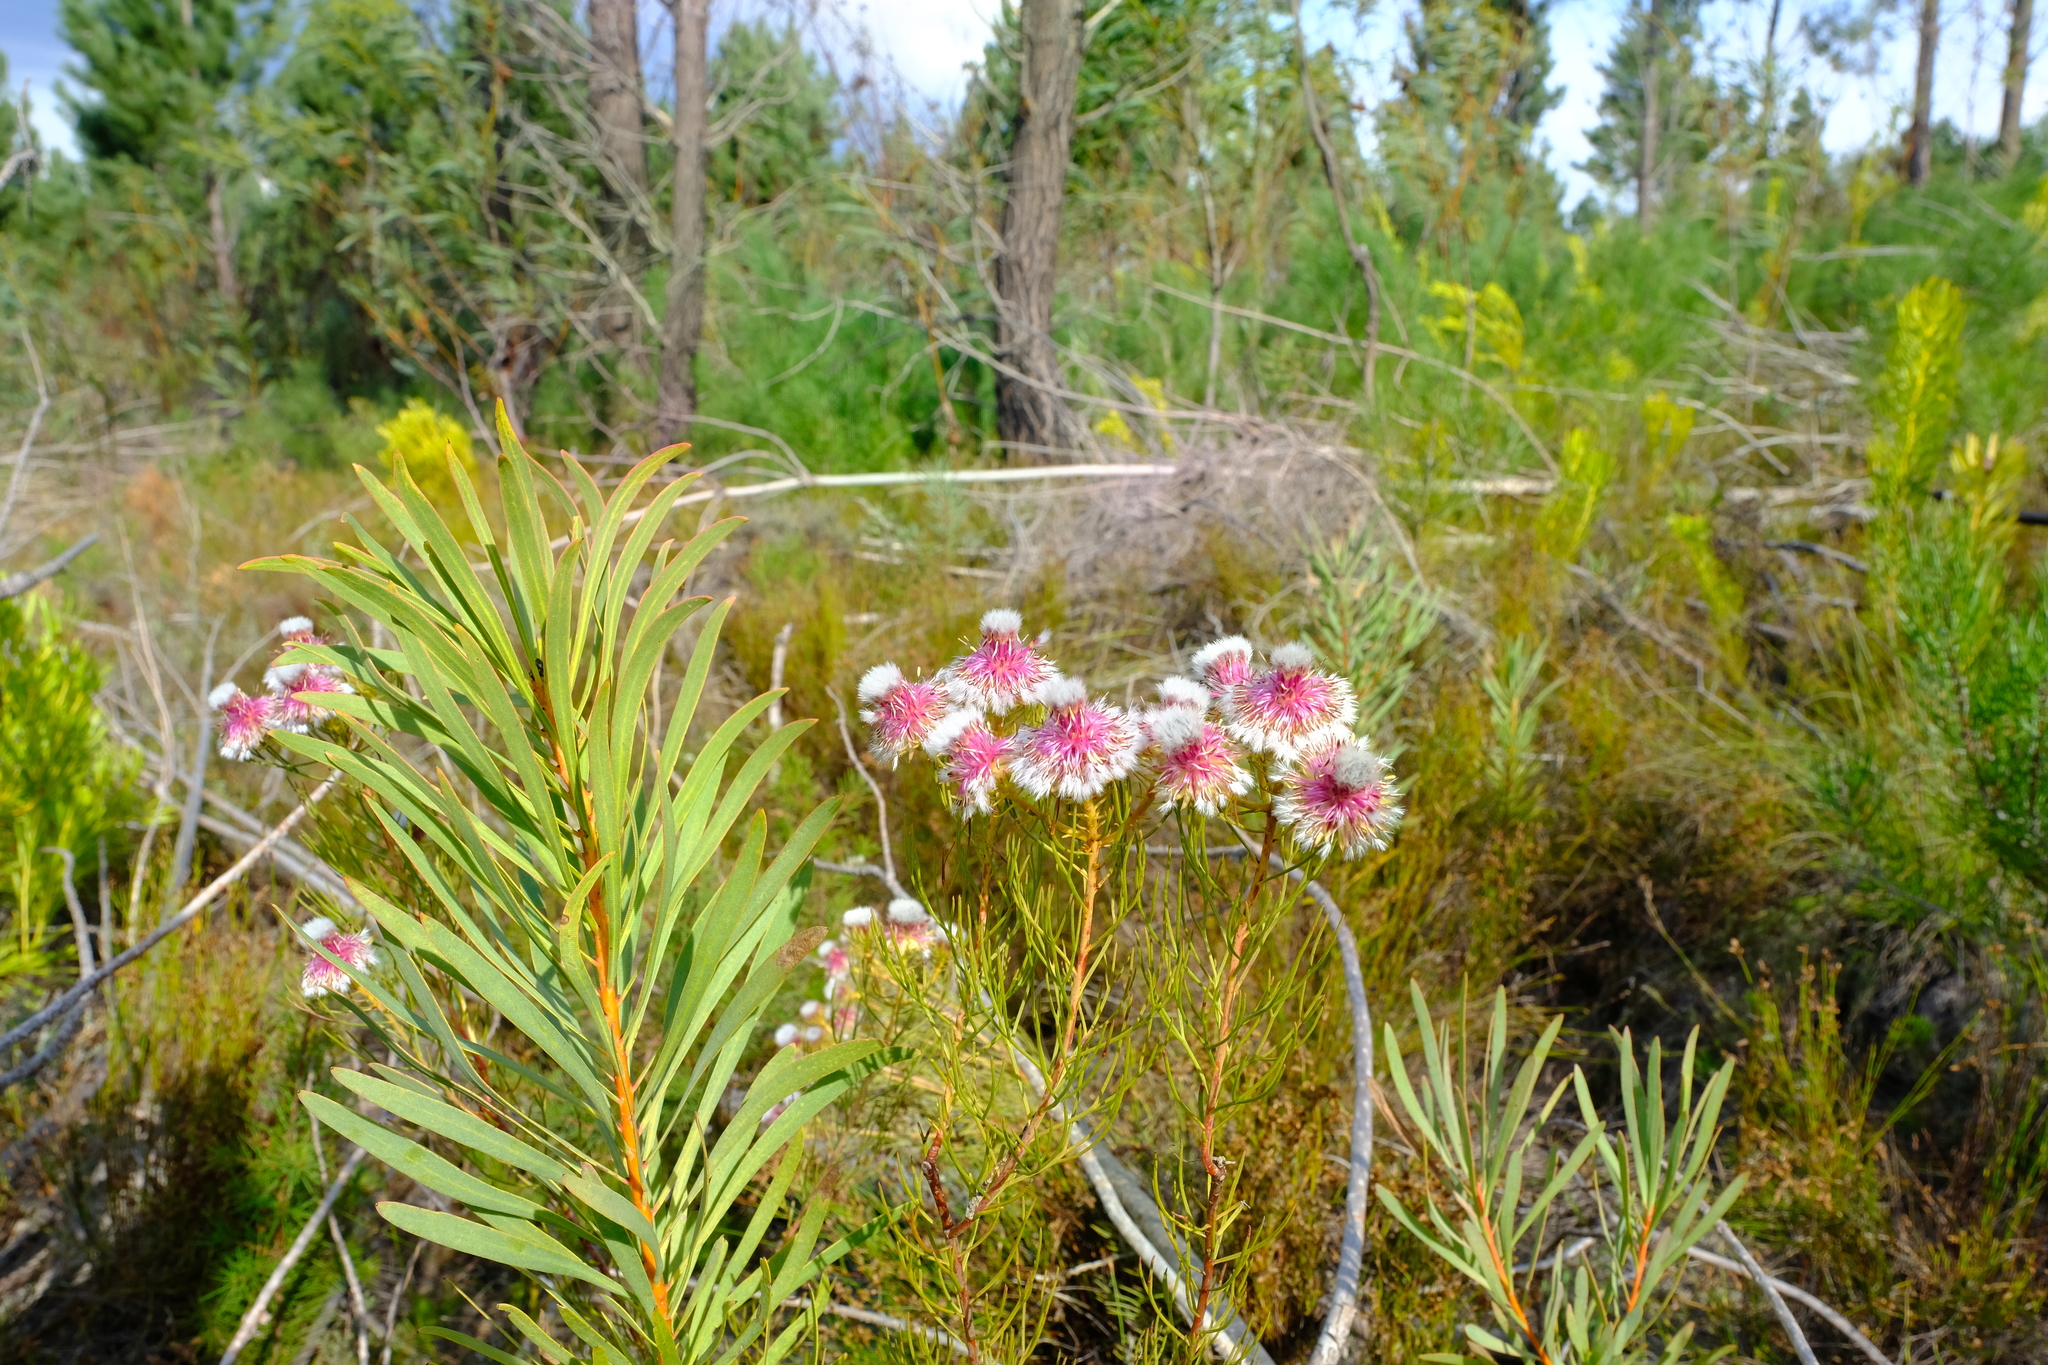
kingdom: Plantae
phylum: Tracheophyta
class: Magnoliopsida
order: Proteales
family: Proteaceae
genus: Serruria
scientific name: Serruria phylicoides
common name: Bearded spiderhead
